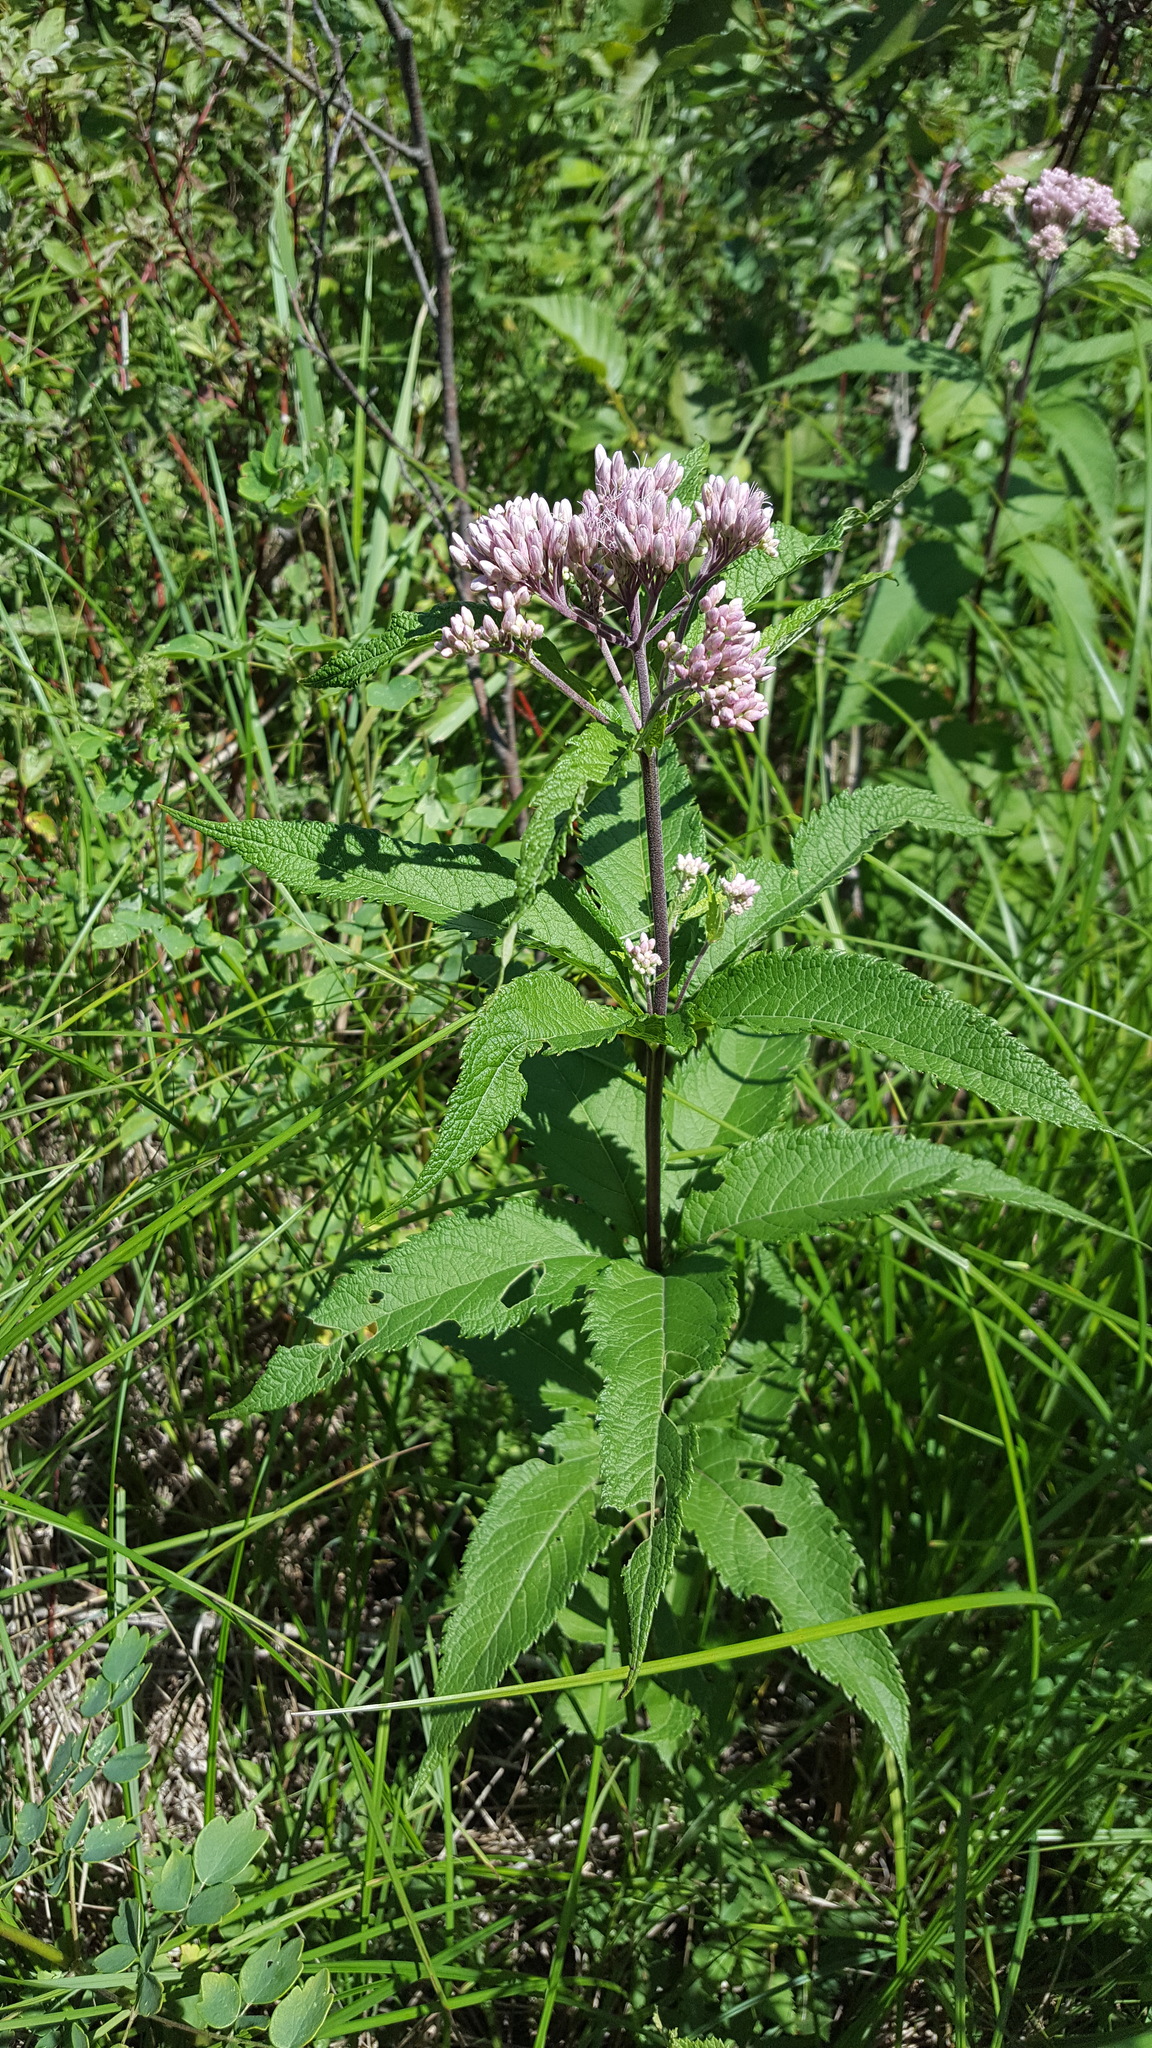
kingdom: Plantae
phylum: Tracheophyta
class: Magnoliopsida
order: Asterales
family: Asteraceae
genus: Eutrochium
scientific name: Eutrochium maculatum
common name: Spotted joe pye weed
